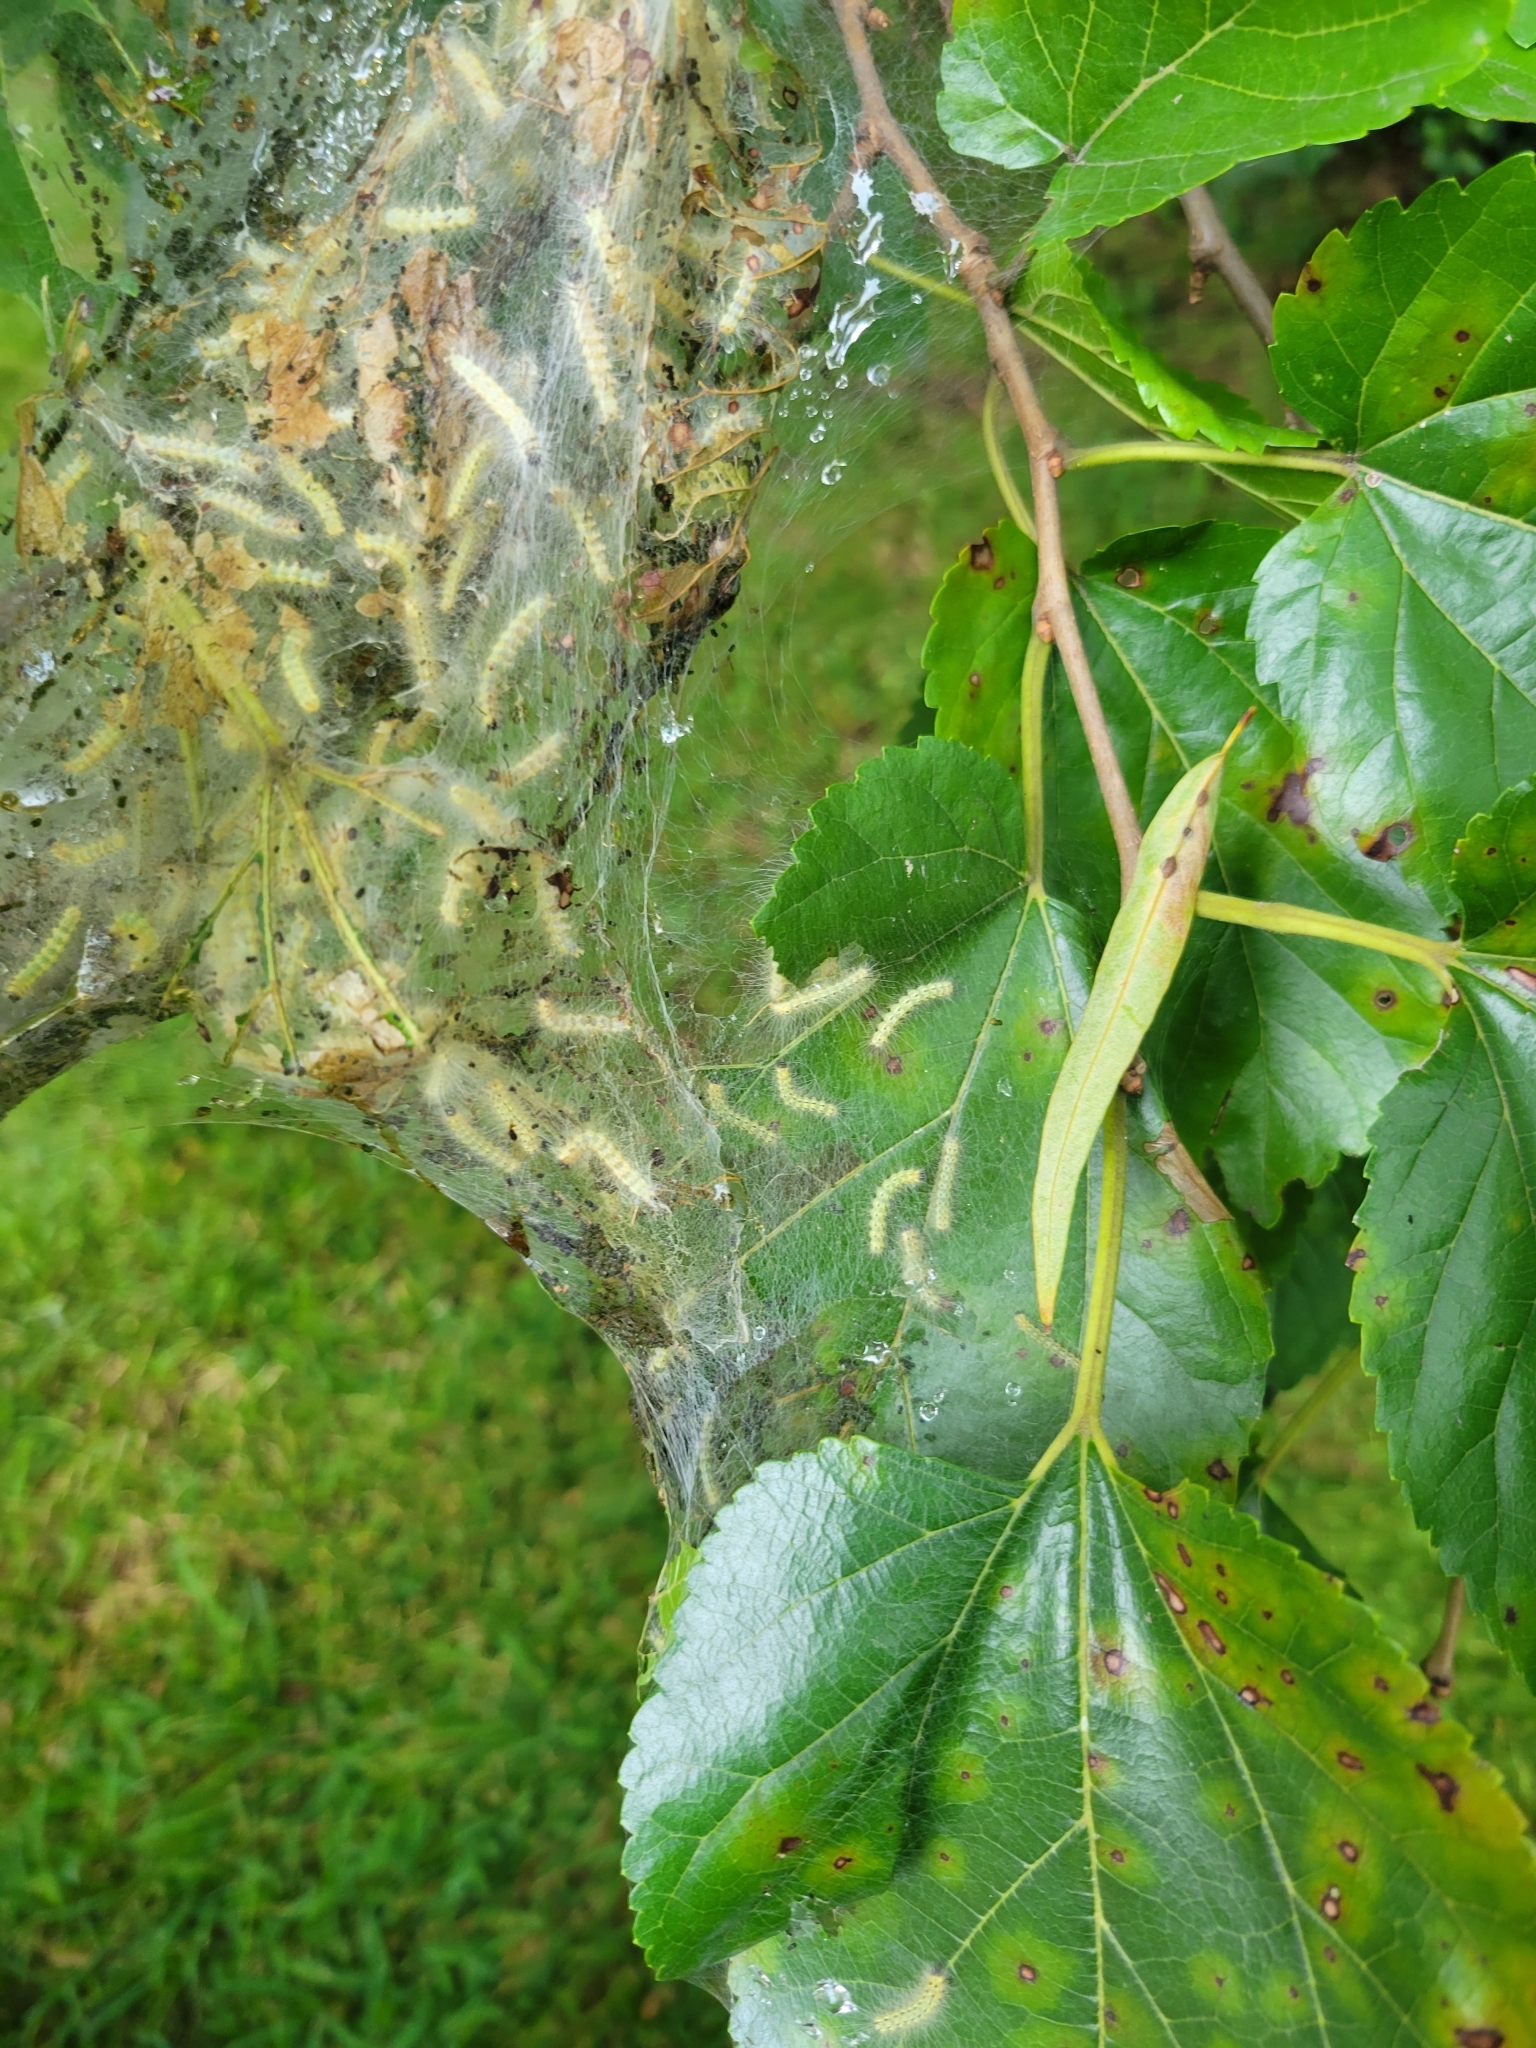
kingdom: Animalia
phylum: Arthropoda
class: Insecta
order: Lepidoptera
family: Erebidae
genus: Hyphantria
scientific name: Hyphantria cunea
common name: American white moth
